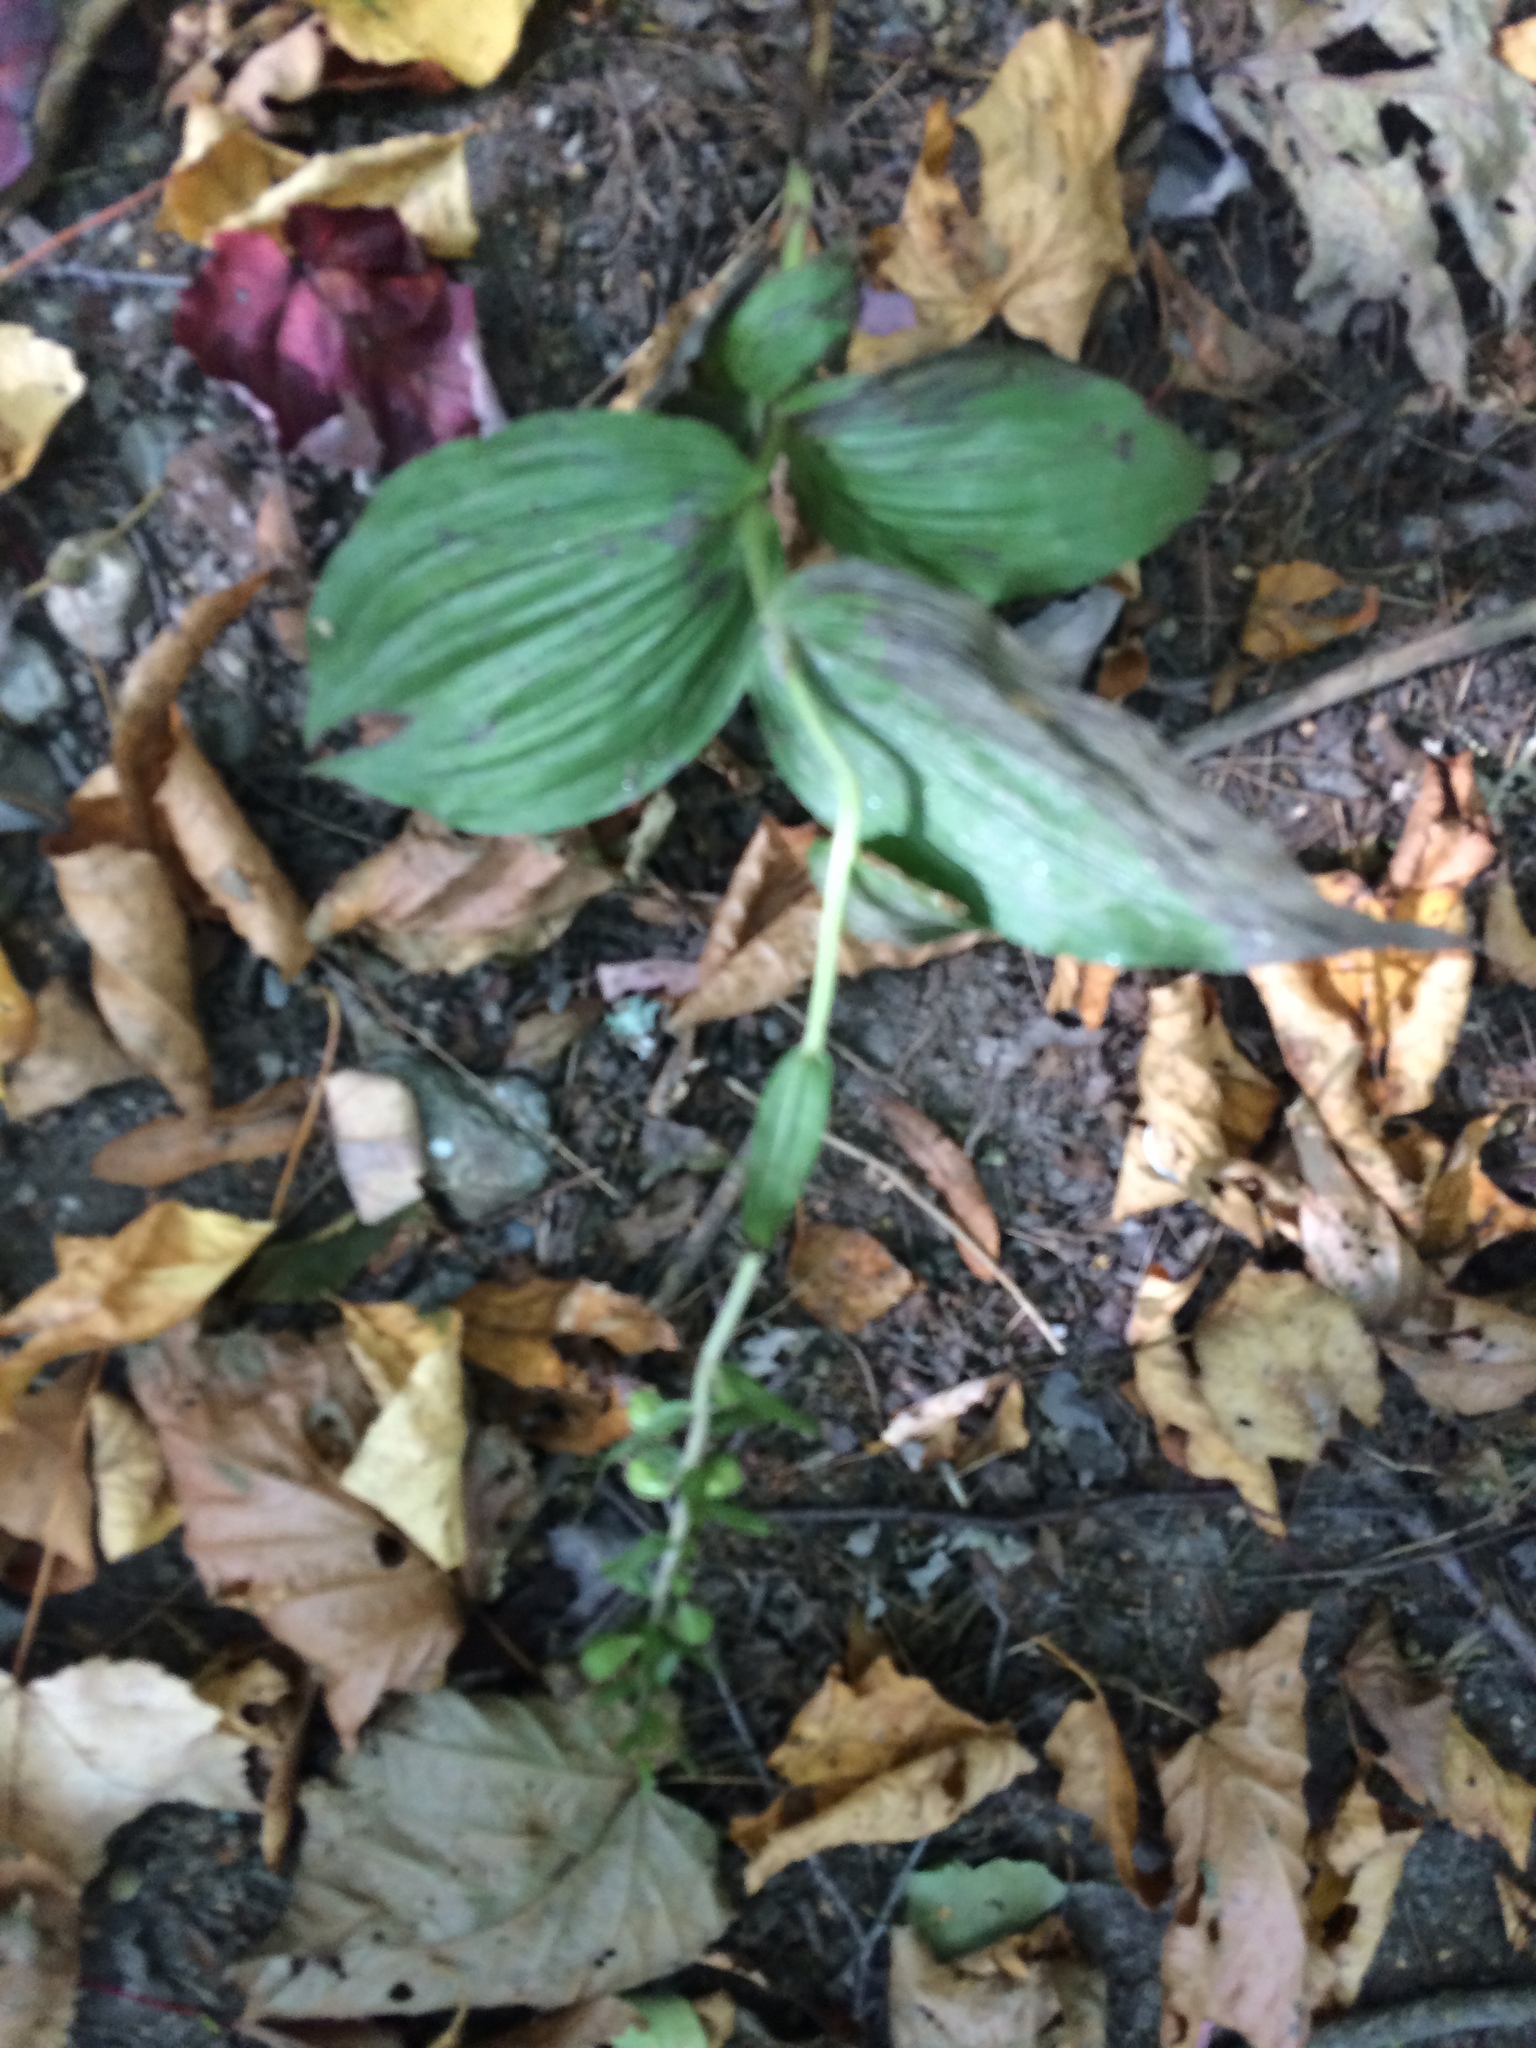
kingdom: Plantae
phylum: Tracheophyta
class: Liliopsida
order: Asparagales
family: Orchidaceae
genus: Epipactis
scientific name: Epipactis helleborine
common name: Broad-leaved helleborine
